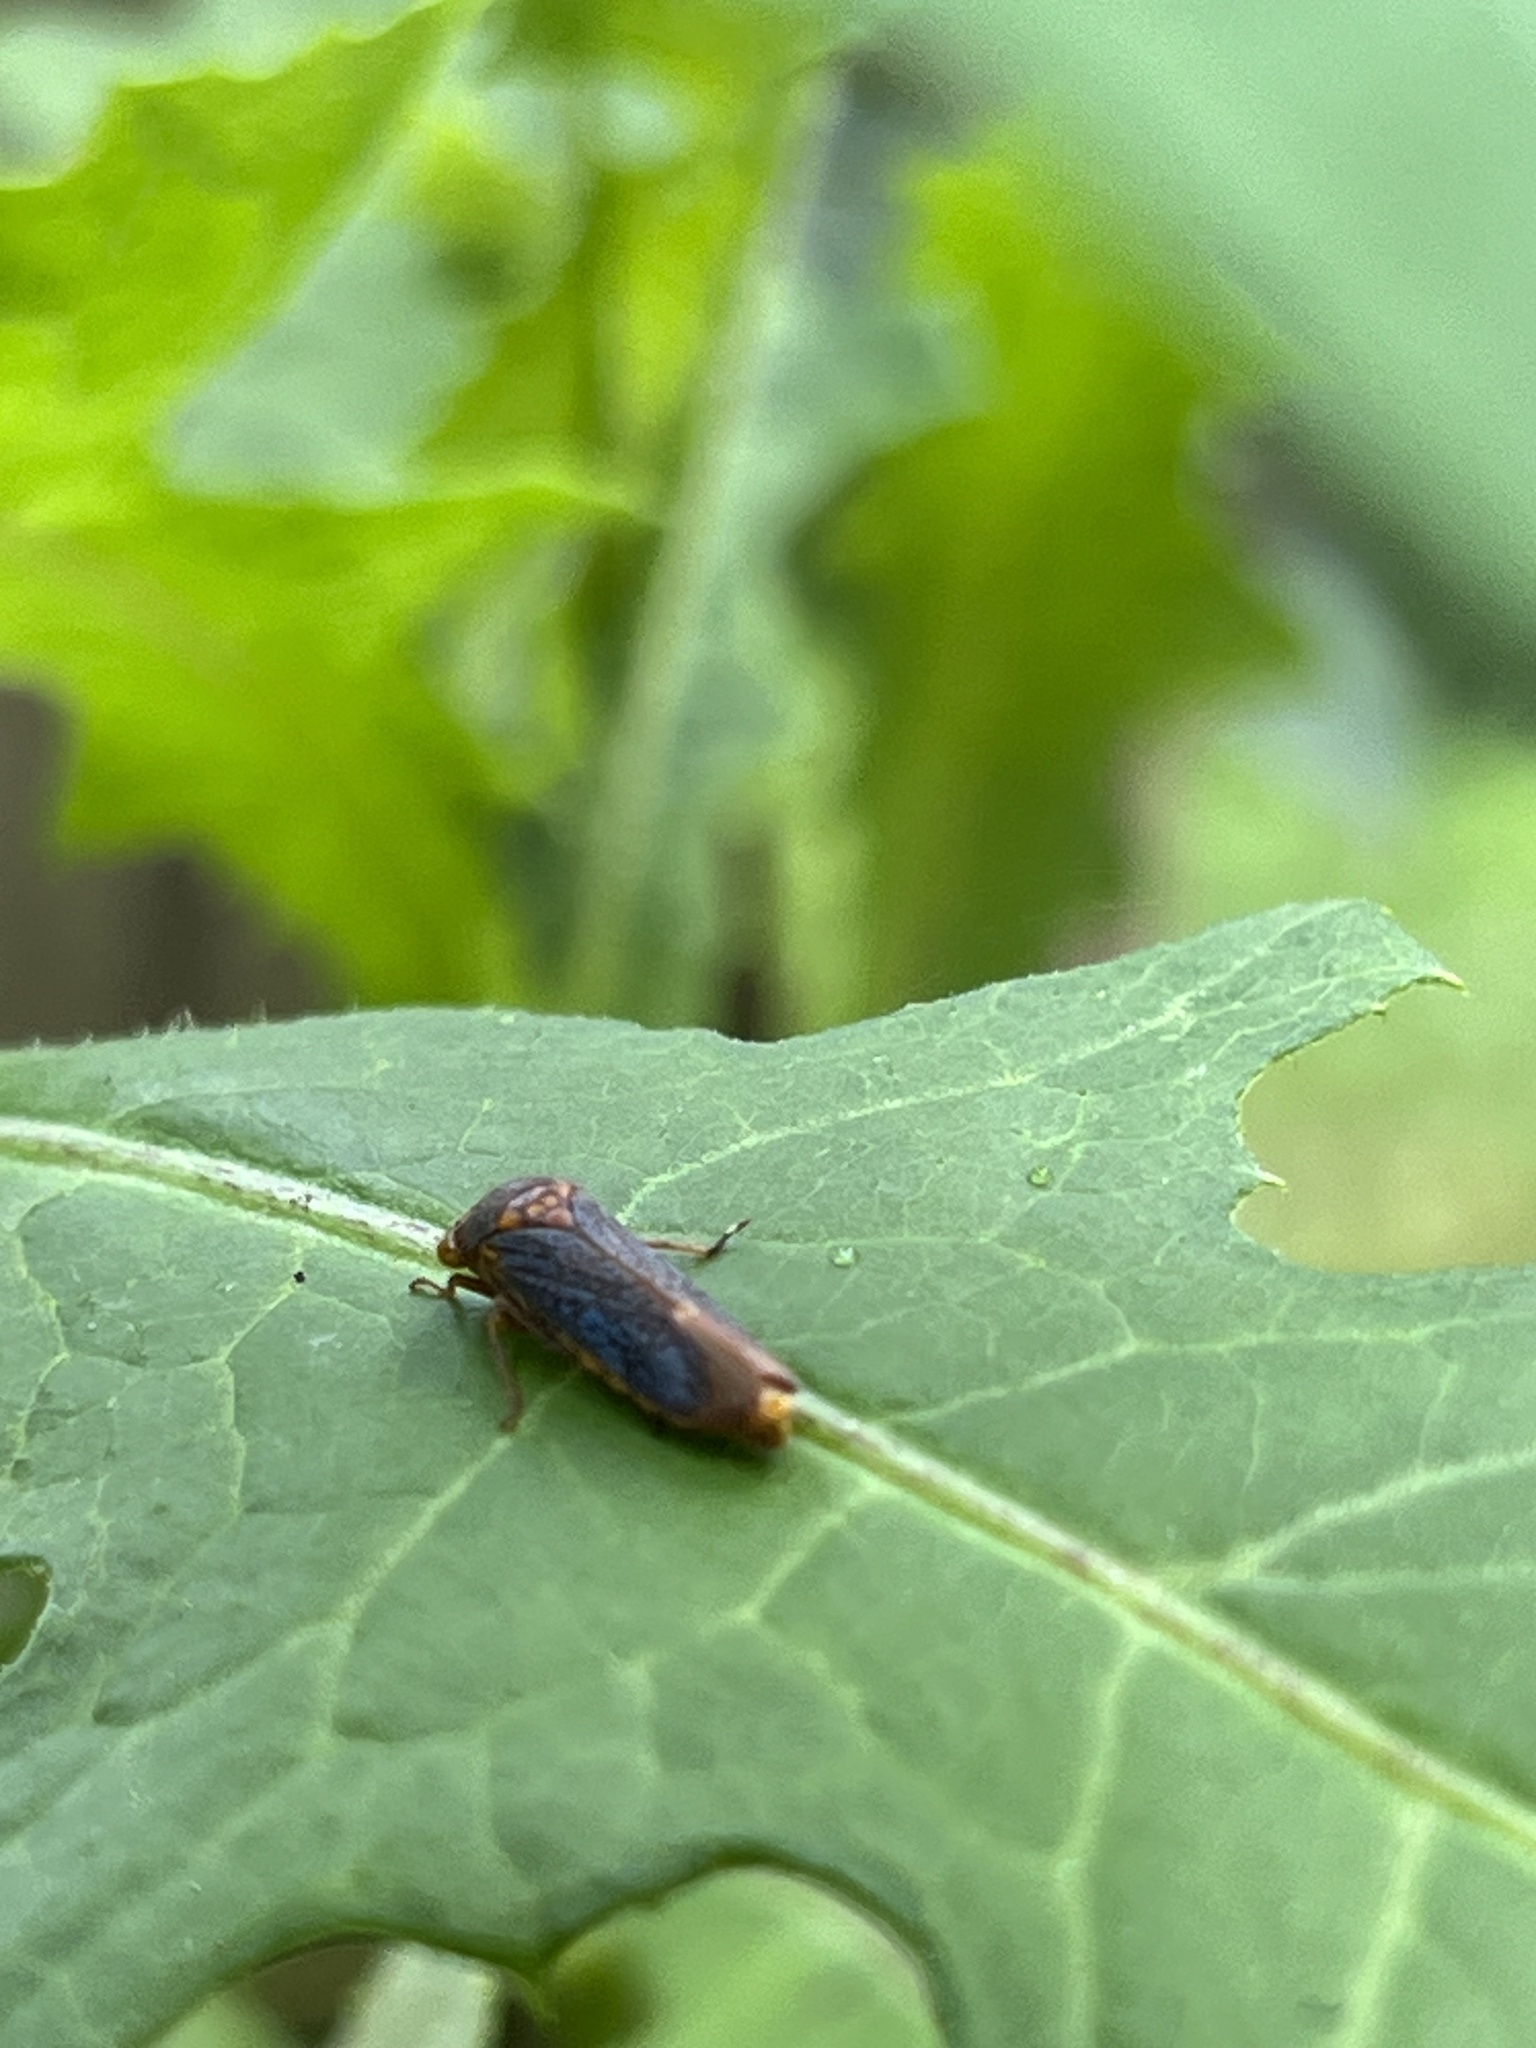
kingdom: Animalia
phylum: Arthropoda
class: Insecta
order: Hemiptera
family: Cicadellidae
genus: Oncometopia
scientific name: Oncometopia orbona
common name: Broad-headed sharpshooter
